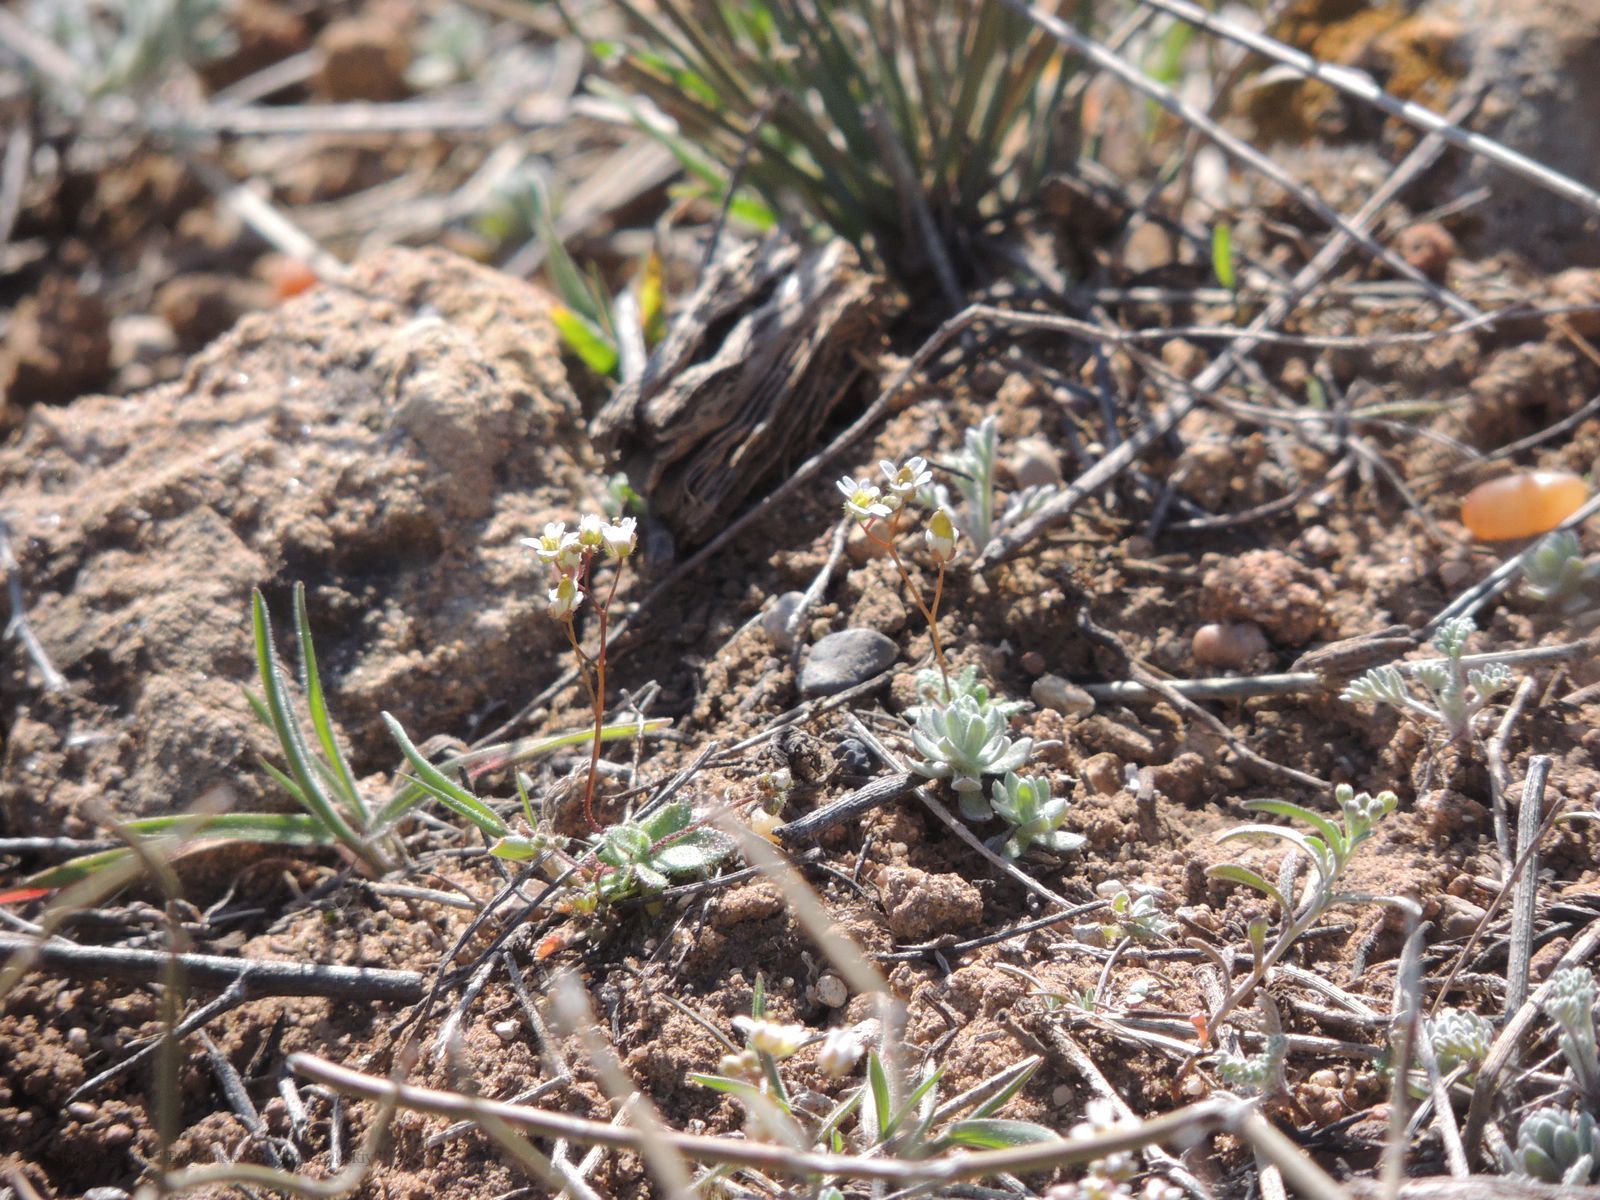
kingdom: Plantae
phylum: Tracheophyta
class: Magnoliopsida
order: Brassicales
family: Brassicaceae
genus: Draba
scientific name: Draba verna
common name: Spring draba
